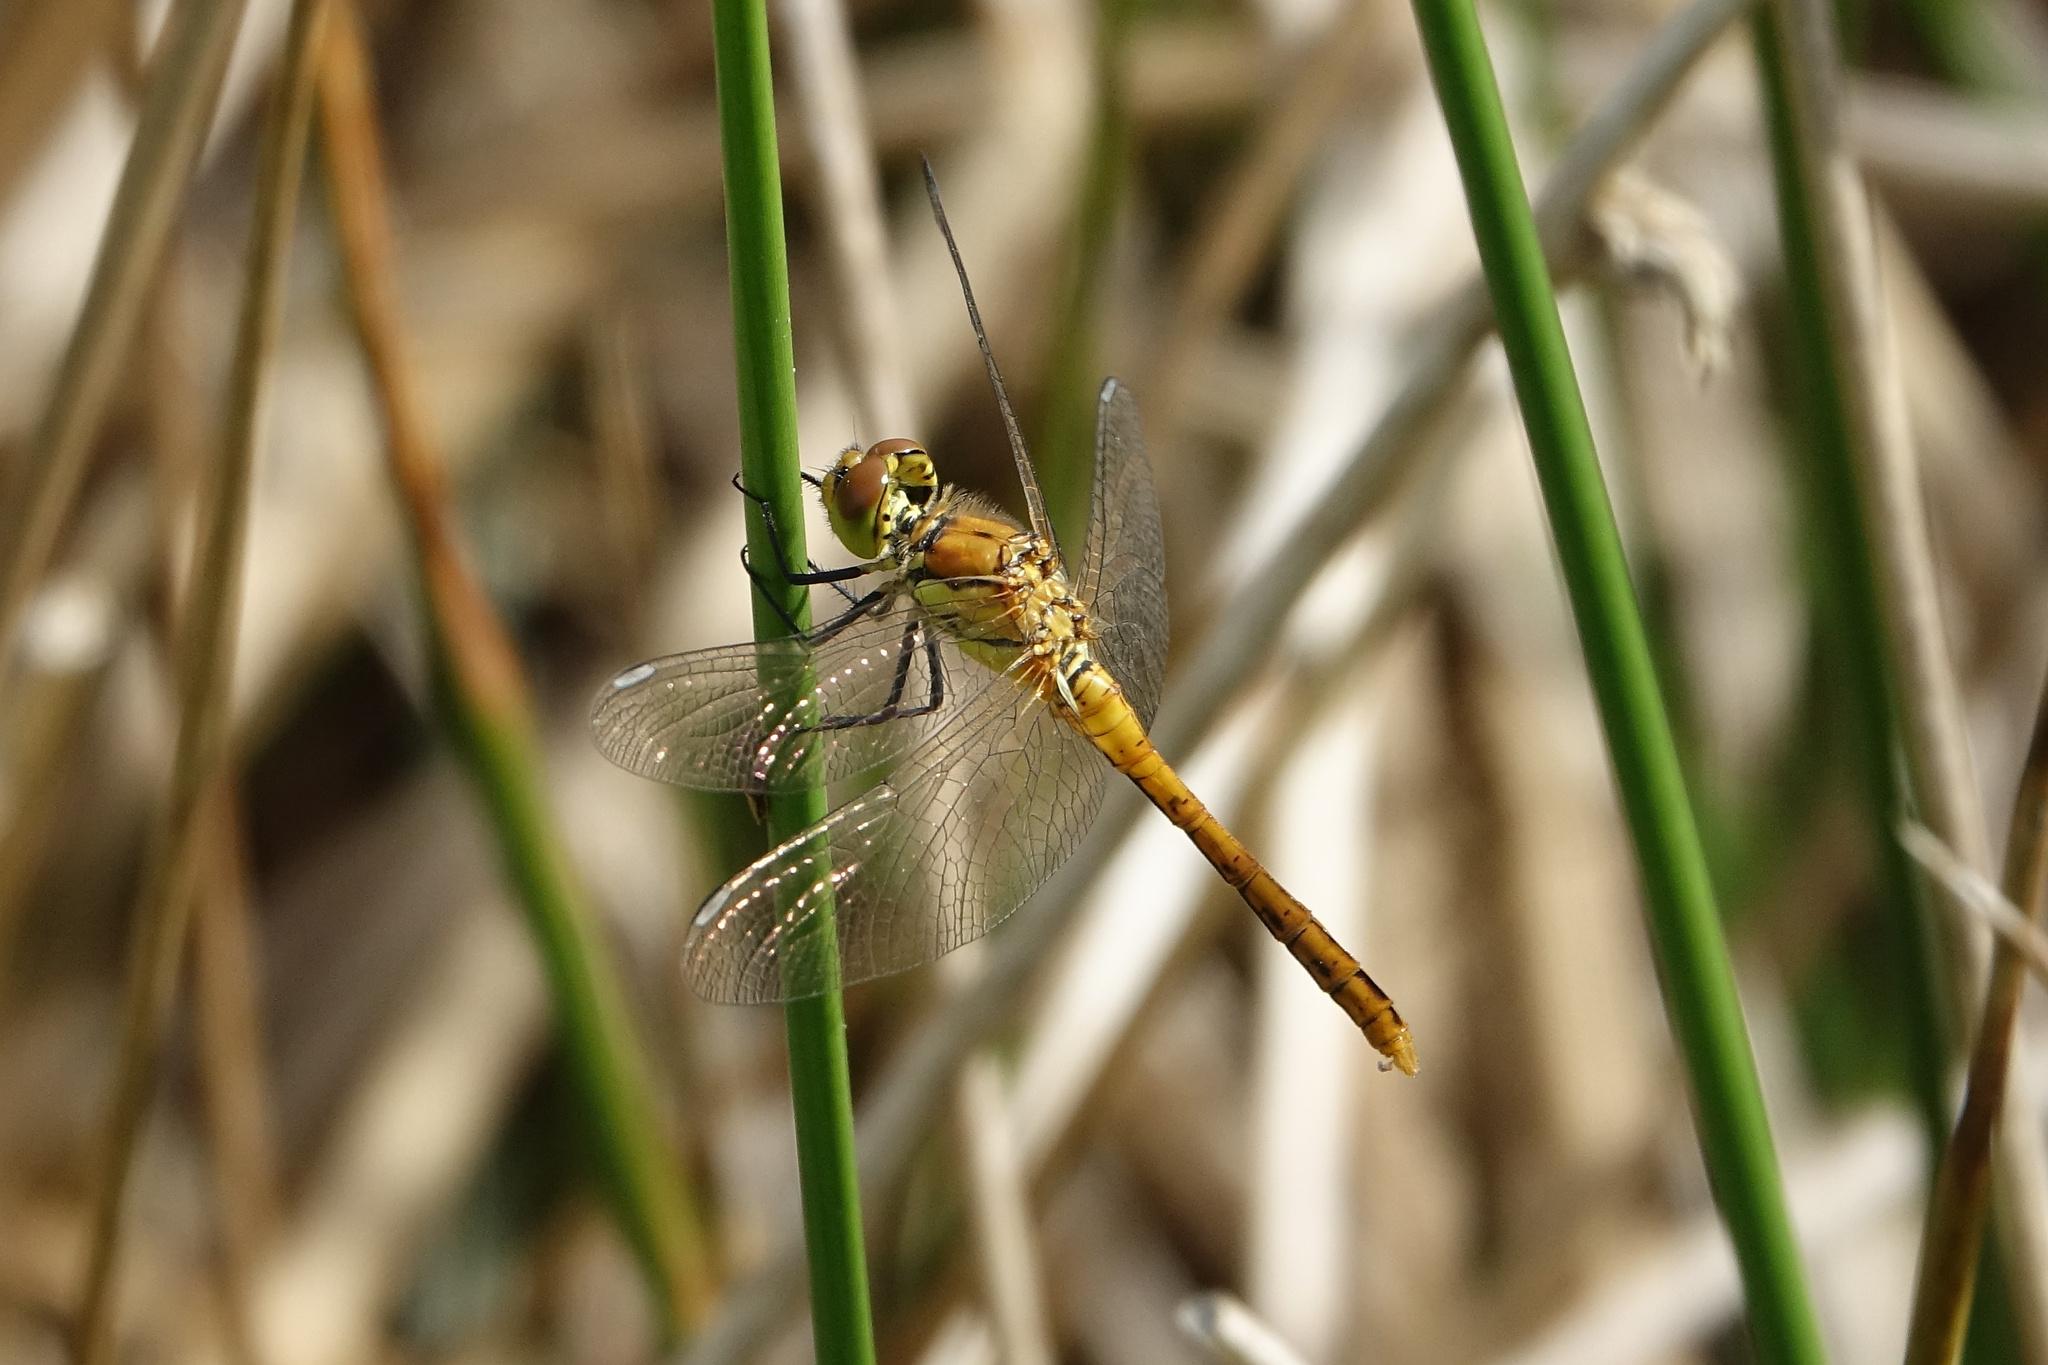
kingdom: Animalia
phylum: Arthropoda
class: Insecta
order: Odonata
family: Libellulidae
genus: Sympetrum
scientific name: Sympetrum sanguineum
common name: Ruddy darter
